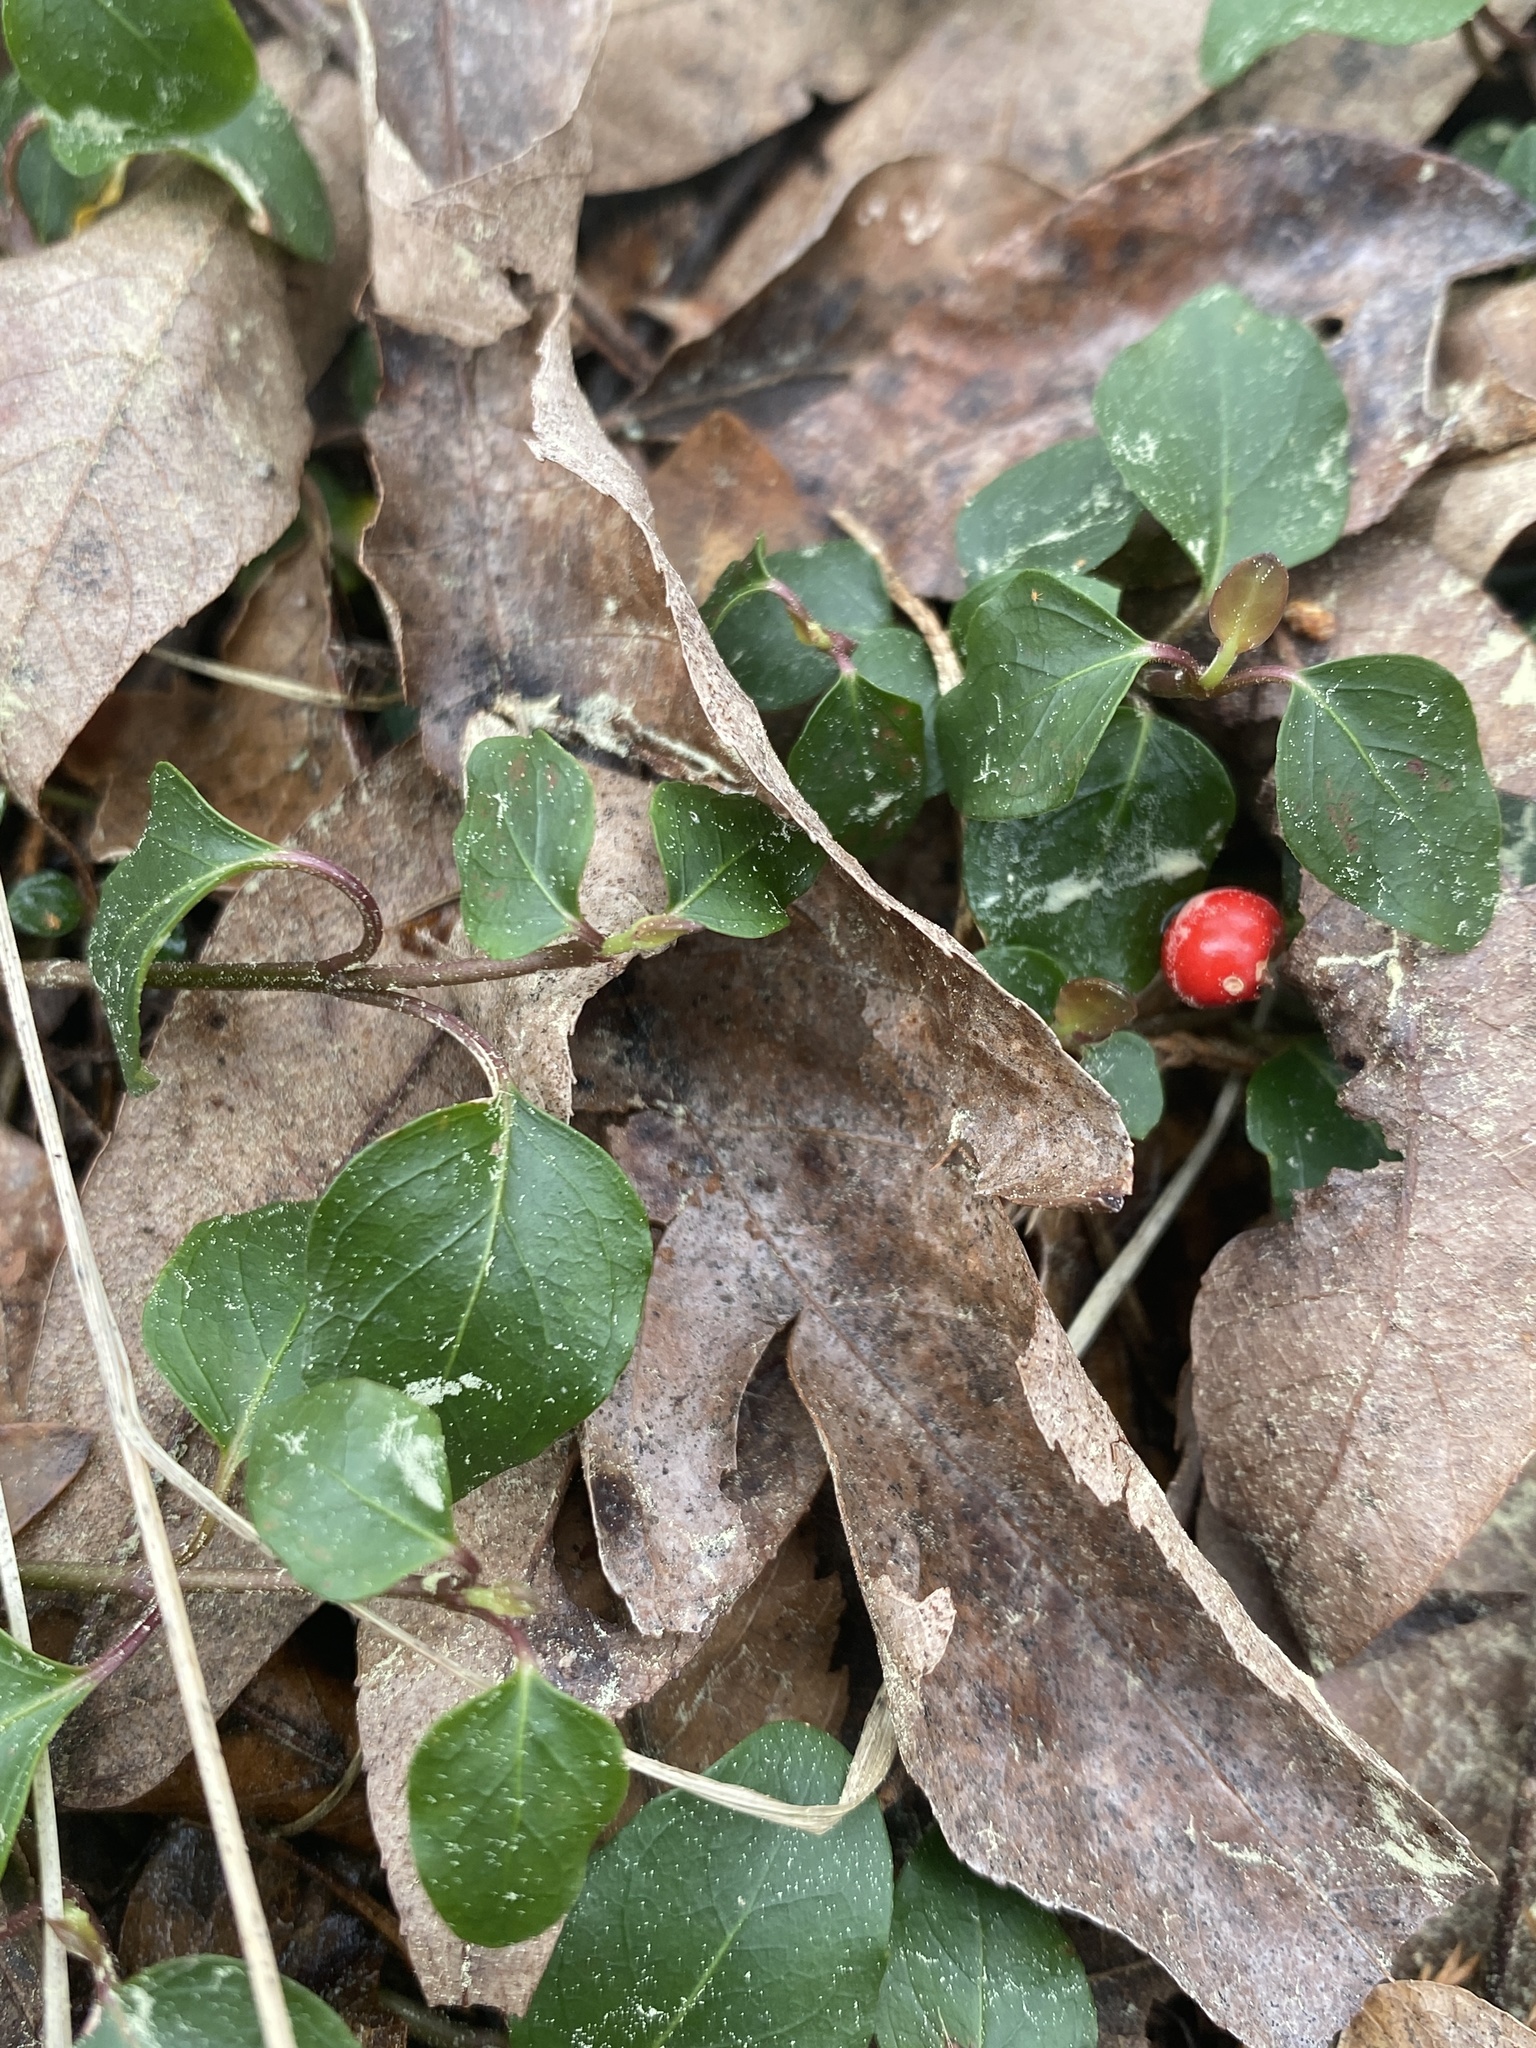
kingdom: Plantae
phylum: Tracheophyta
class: Magnoliopsida
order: Gentianales
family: Rubiaceae
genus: Mitchella
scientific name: Mitchella repens
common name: Partridge-berry
